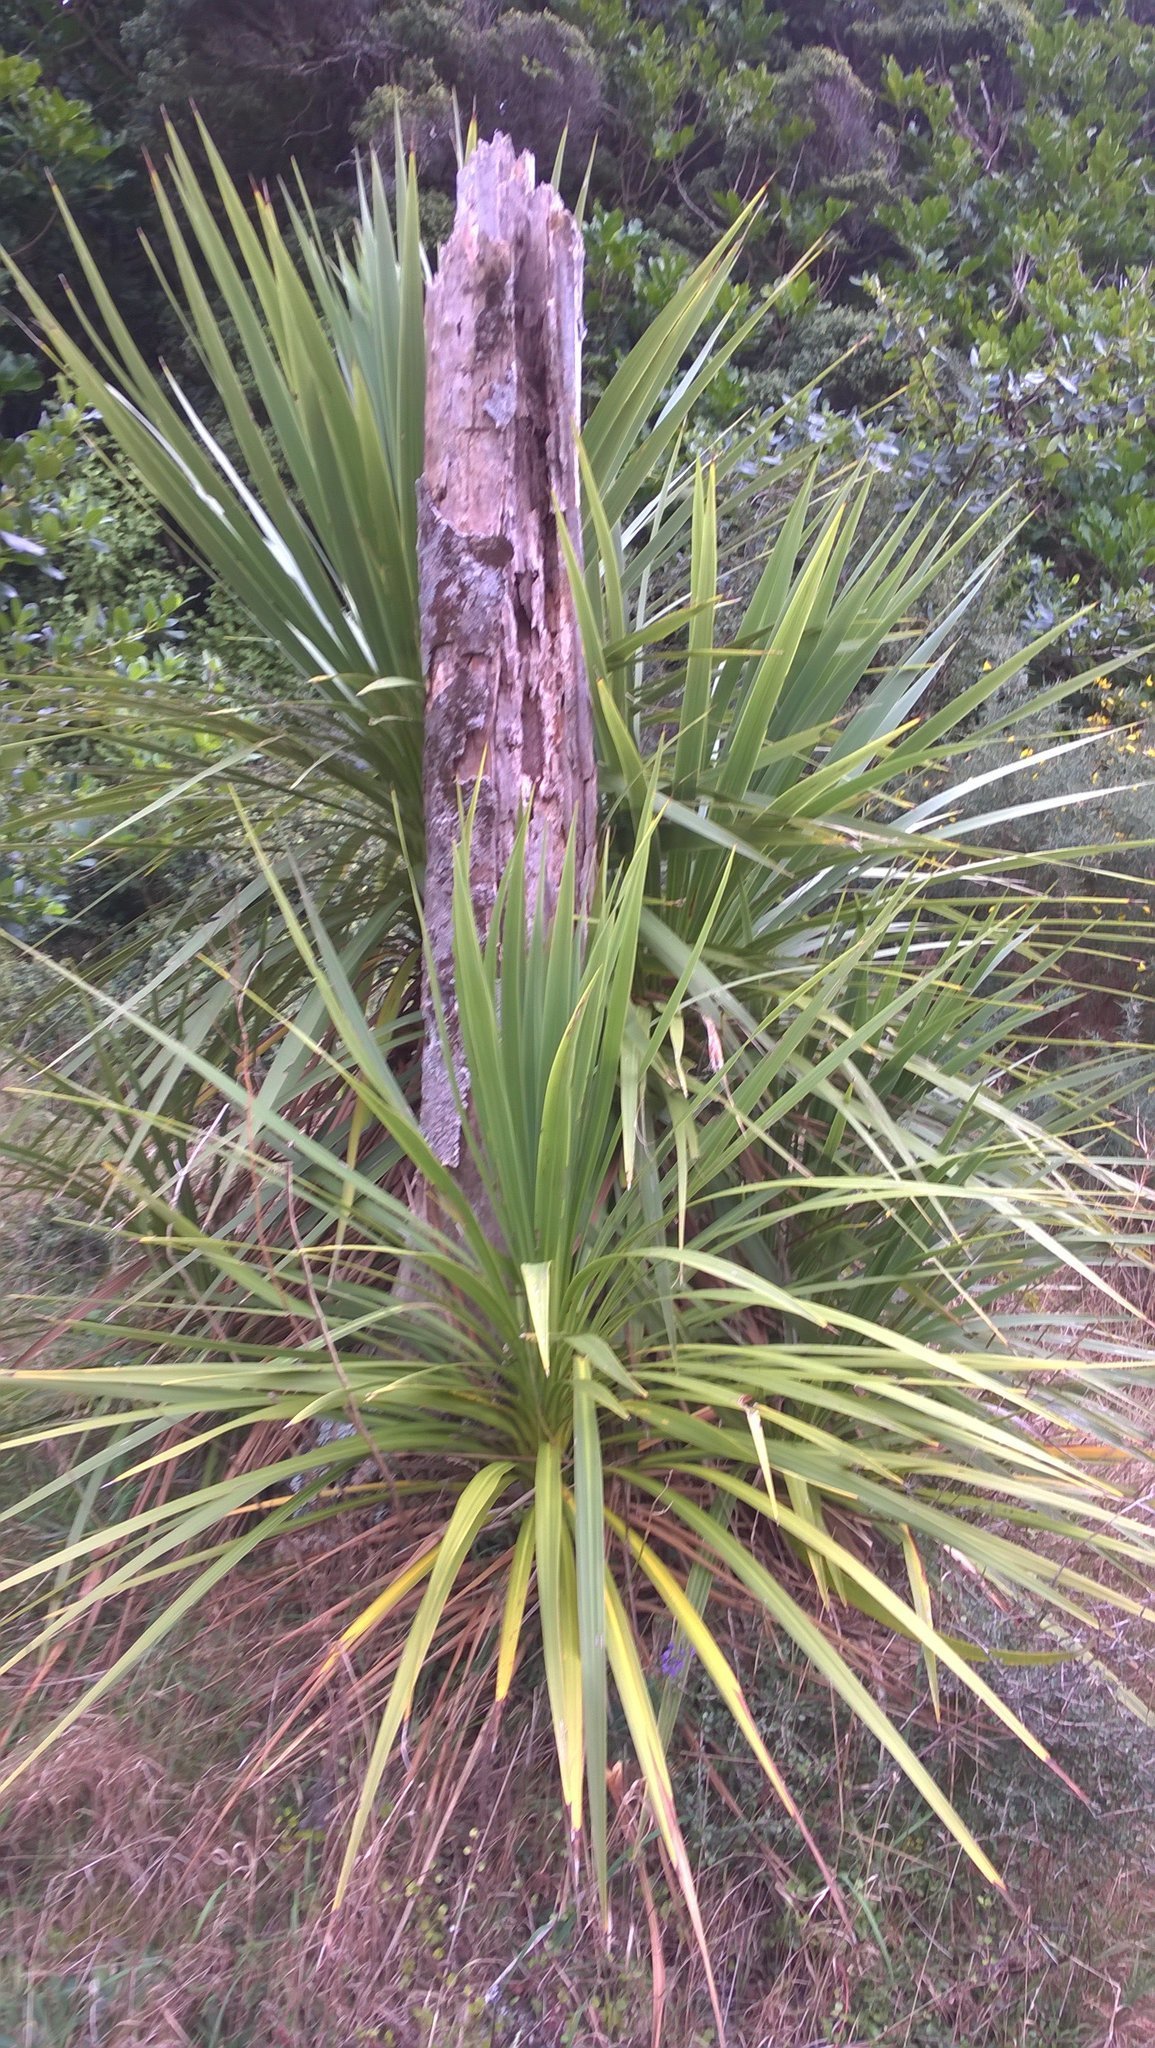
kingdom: Plantae
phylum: Tracheophyta
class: Liliopsida
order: Asparagales
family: Asparagaceae
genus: Cordyline
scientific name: Cordyline australis
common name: Cabbage-palm
